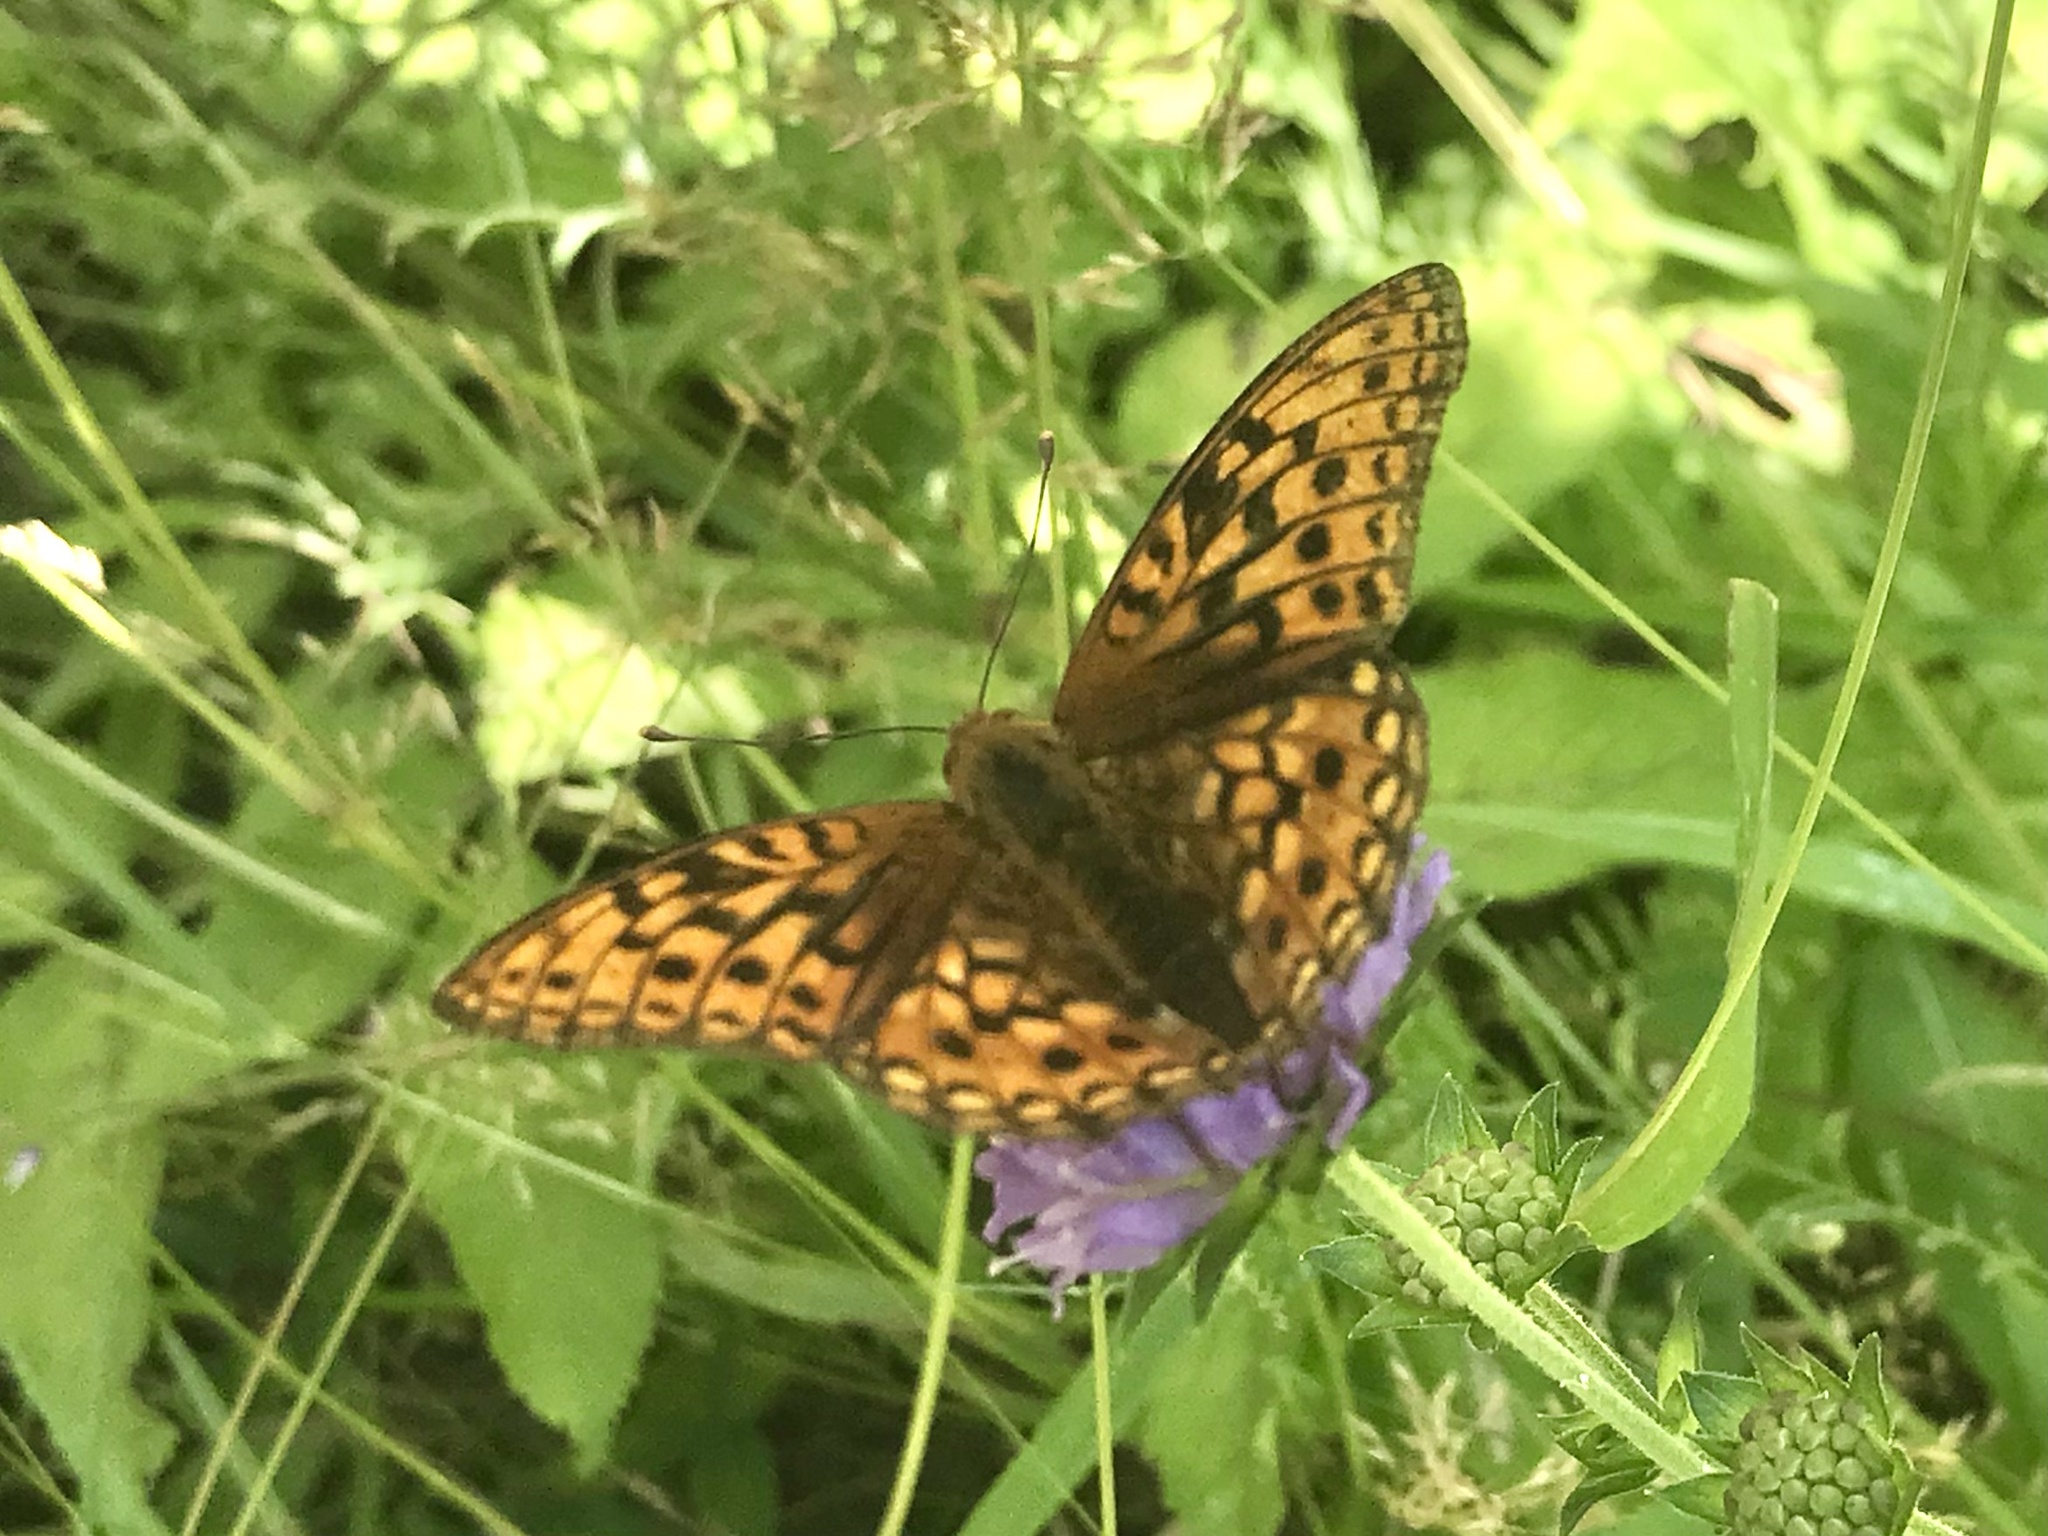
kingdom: Animalia
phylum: Arthropoda
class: Insecta
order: Lepidoptera
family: Nymphalidae
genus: Fabriciana
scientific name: Fabriciana adippe
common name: High brown fritillary
